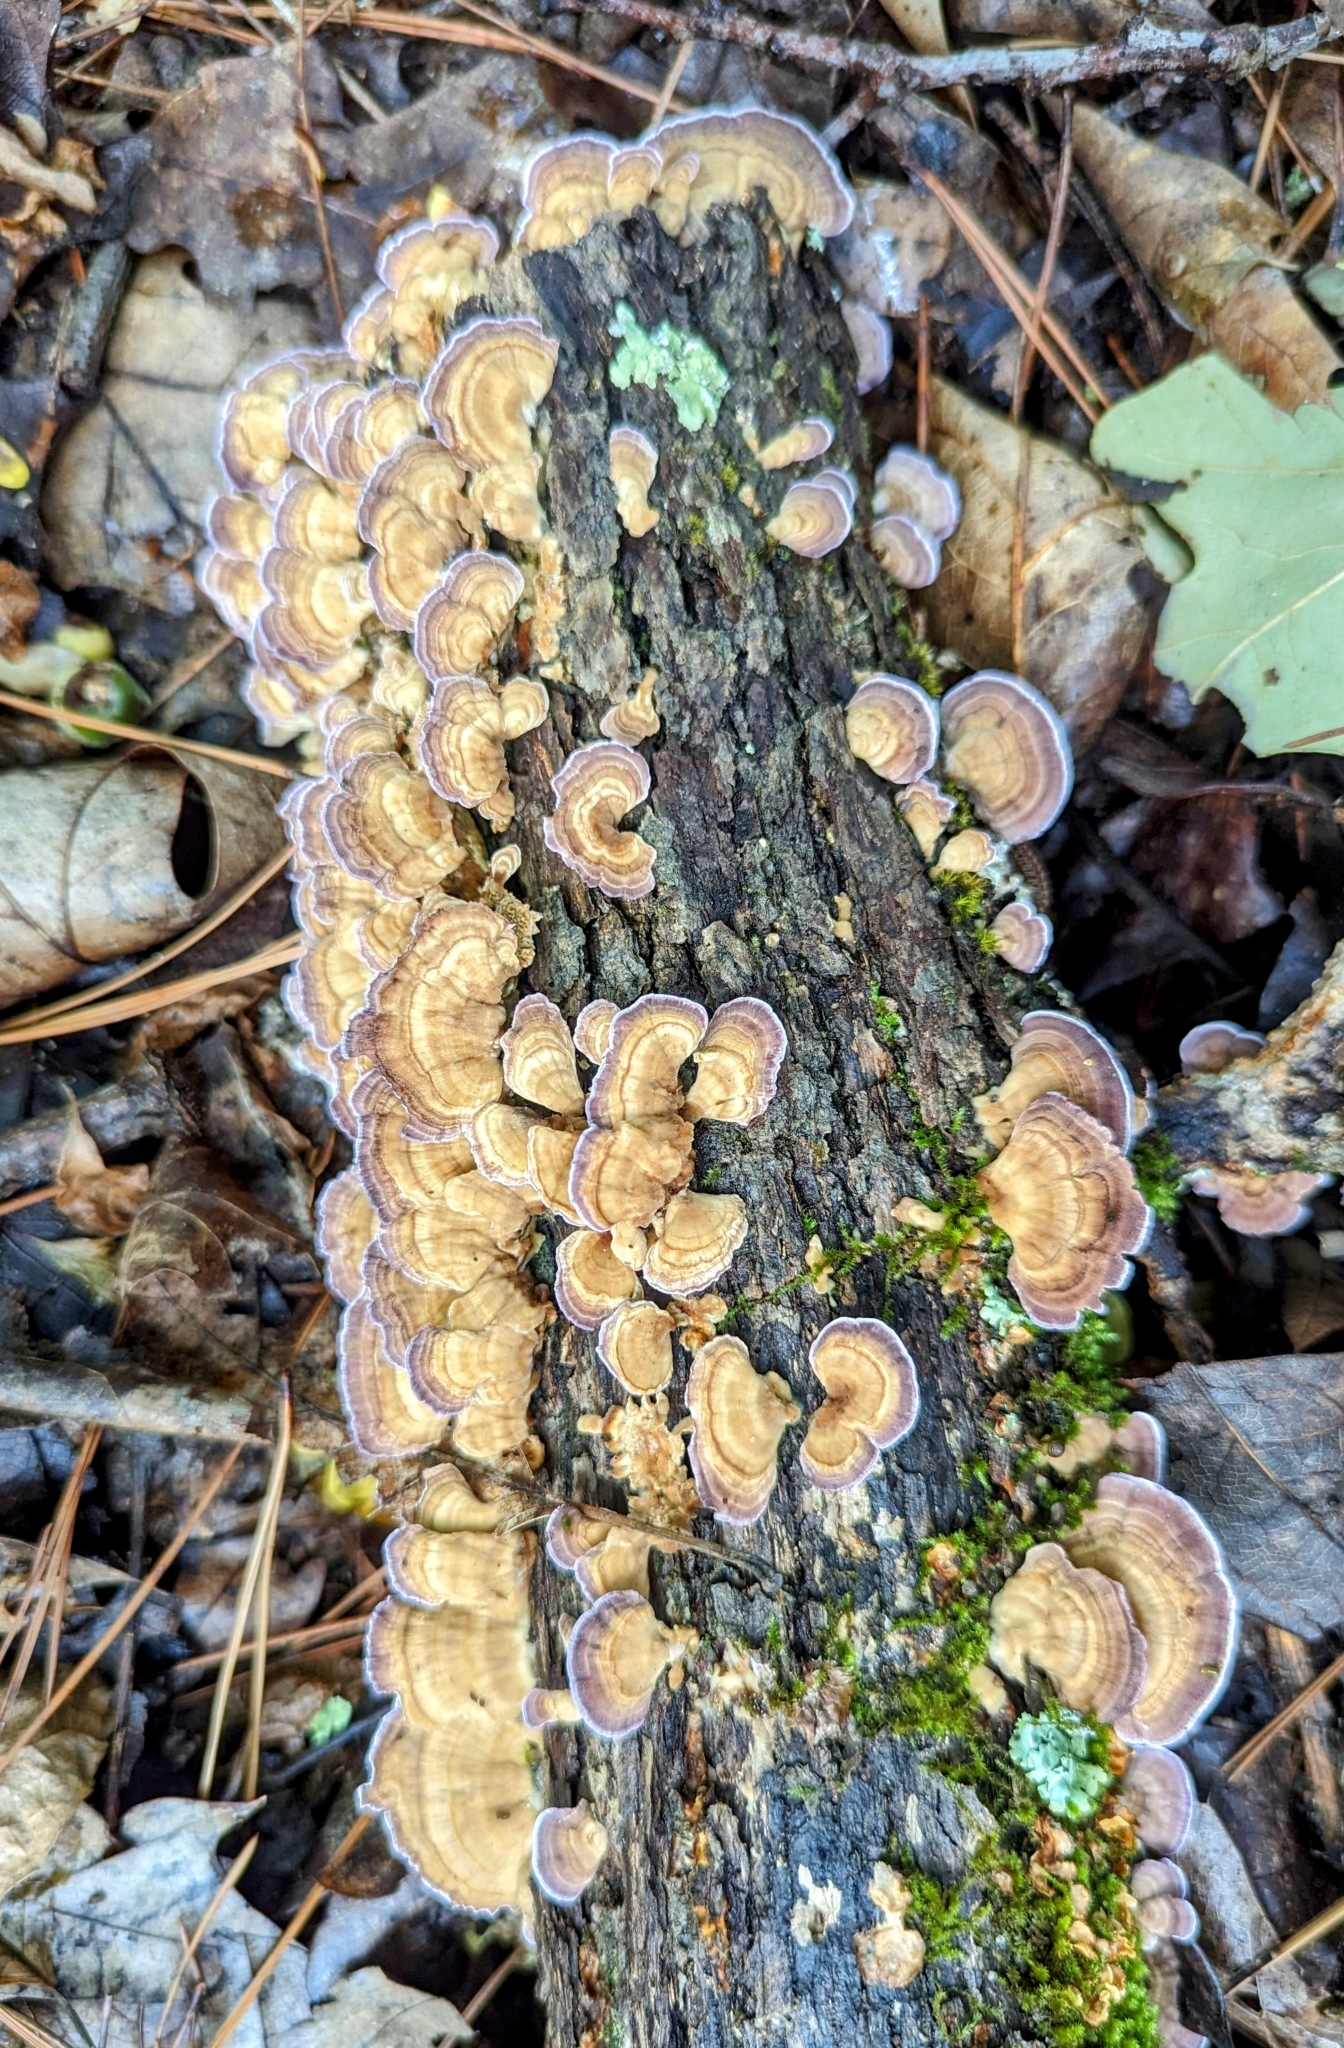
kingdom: Fungi
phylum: Basidiomycota
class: Agaricomycetes
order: Hymenochaetales
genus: Trichaptum
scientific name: Trichaptum biforme
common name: Violet-toothed polypore
